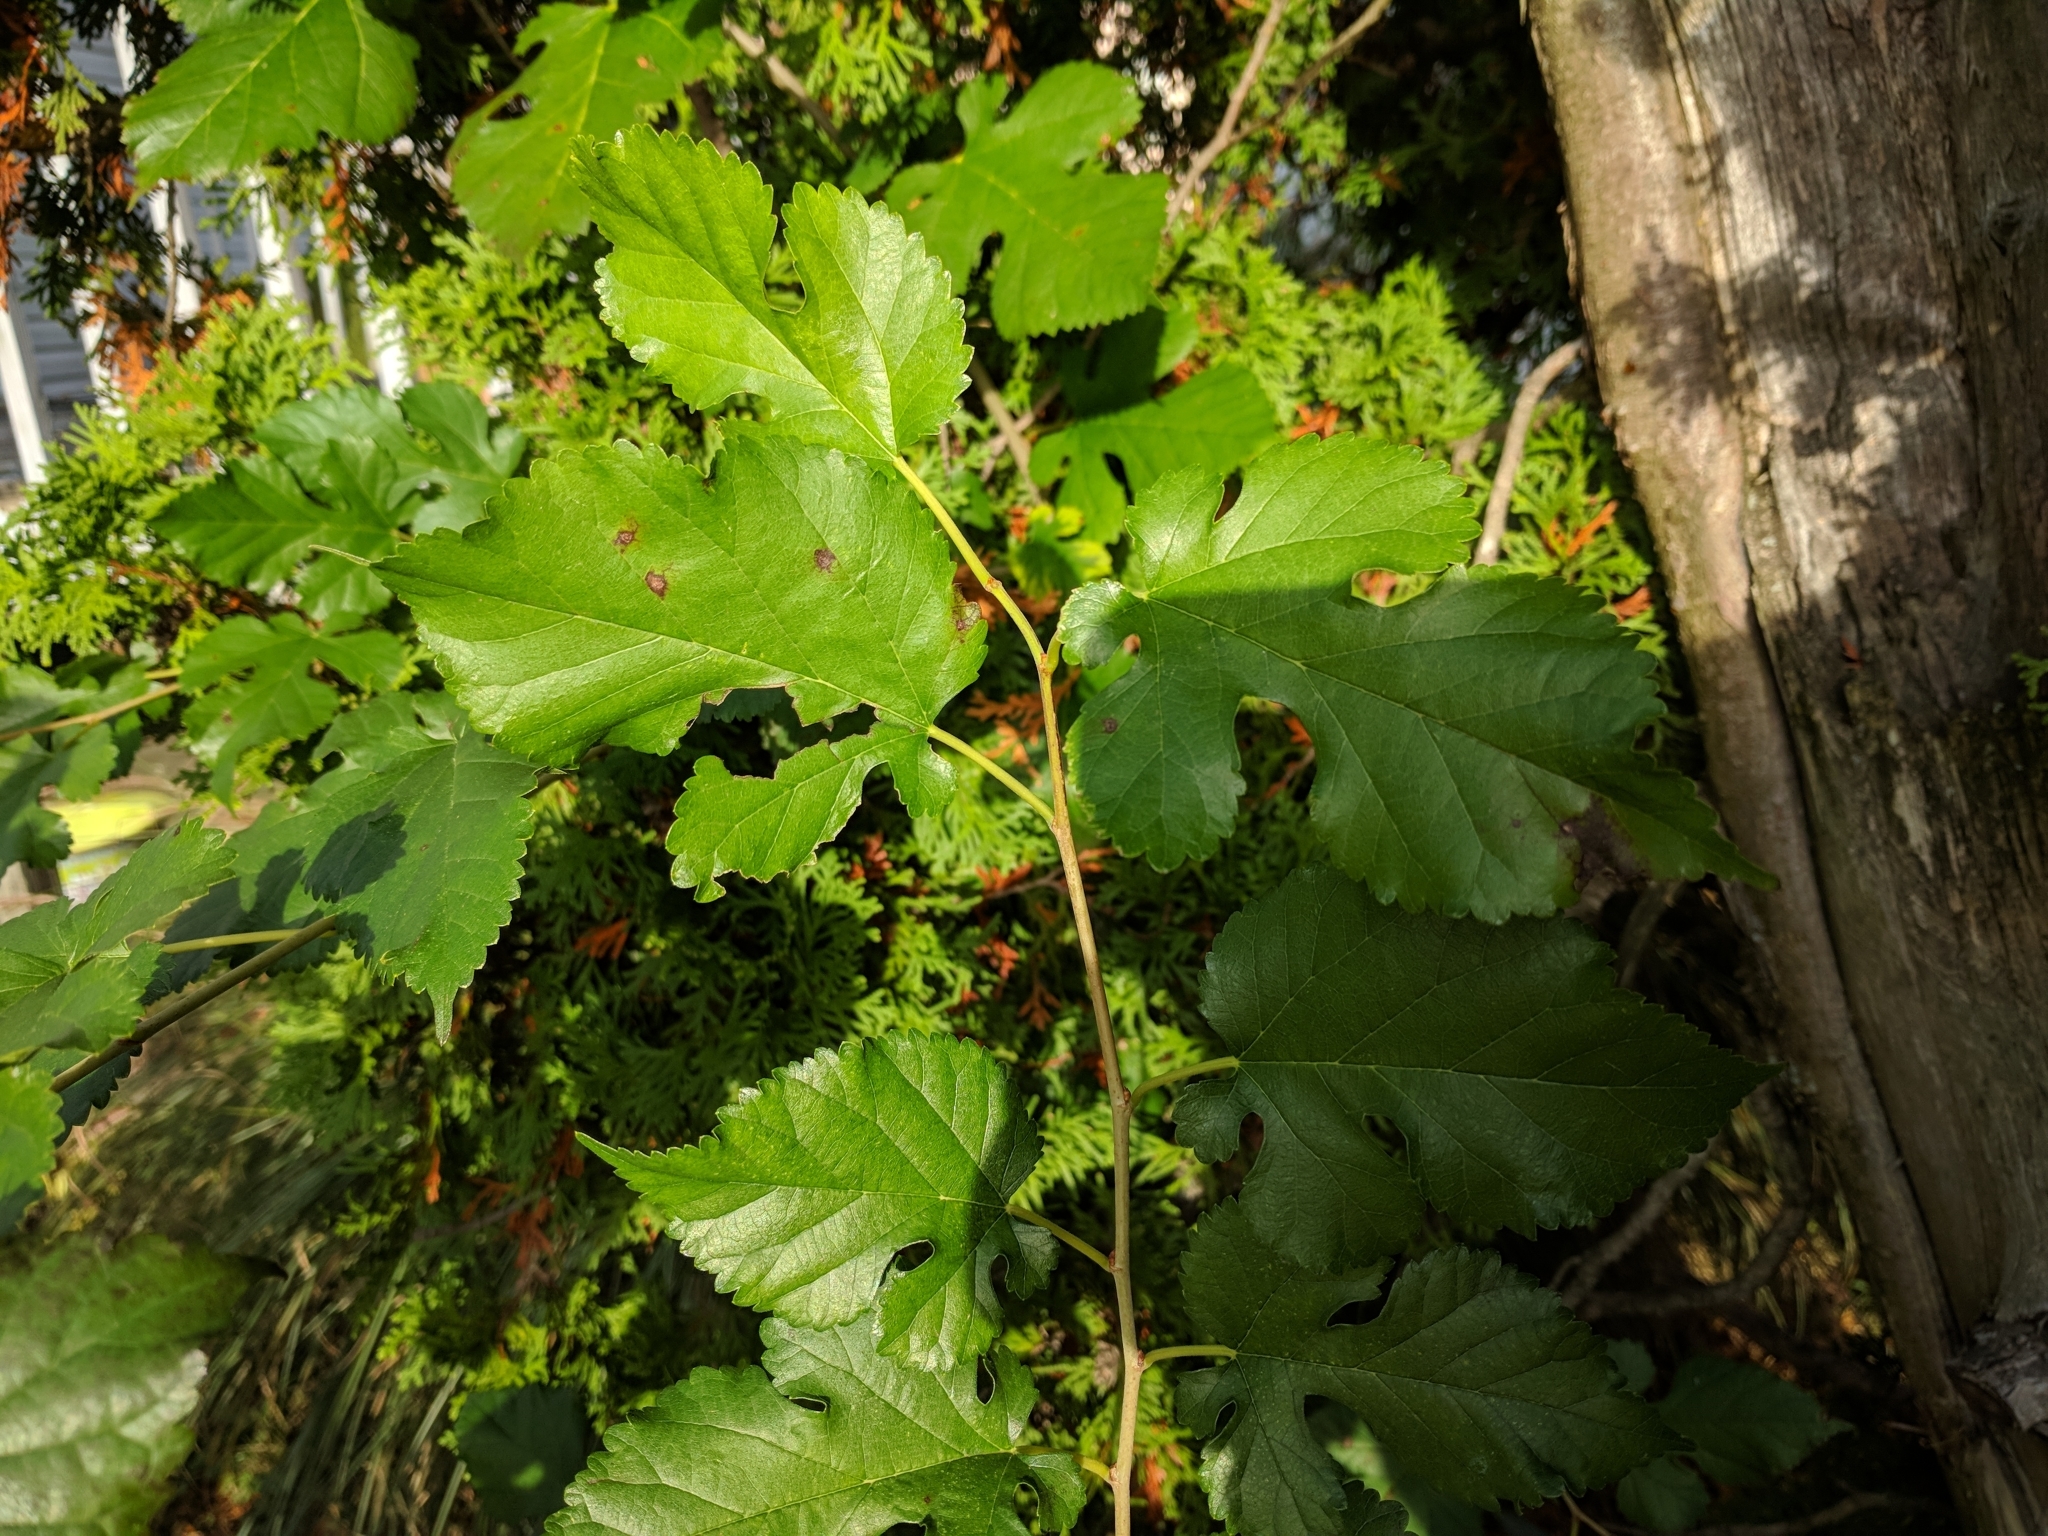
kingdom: Plantae
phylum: Tracheophyta
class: Magnoliopsida
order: Rosales
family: Moraceae
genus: Morus
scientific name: Morus alba
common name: White mulberry
